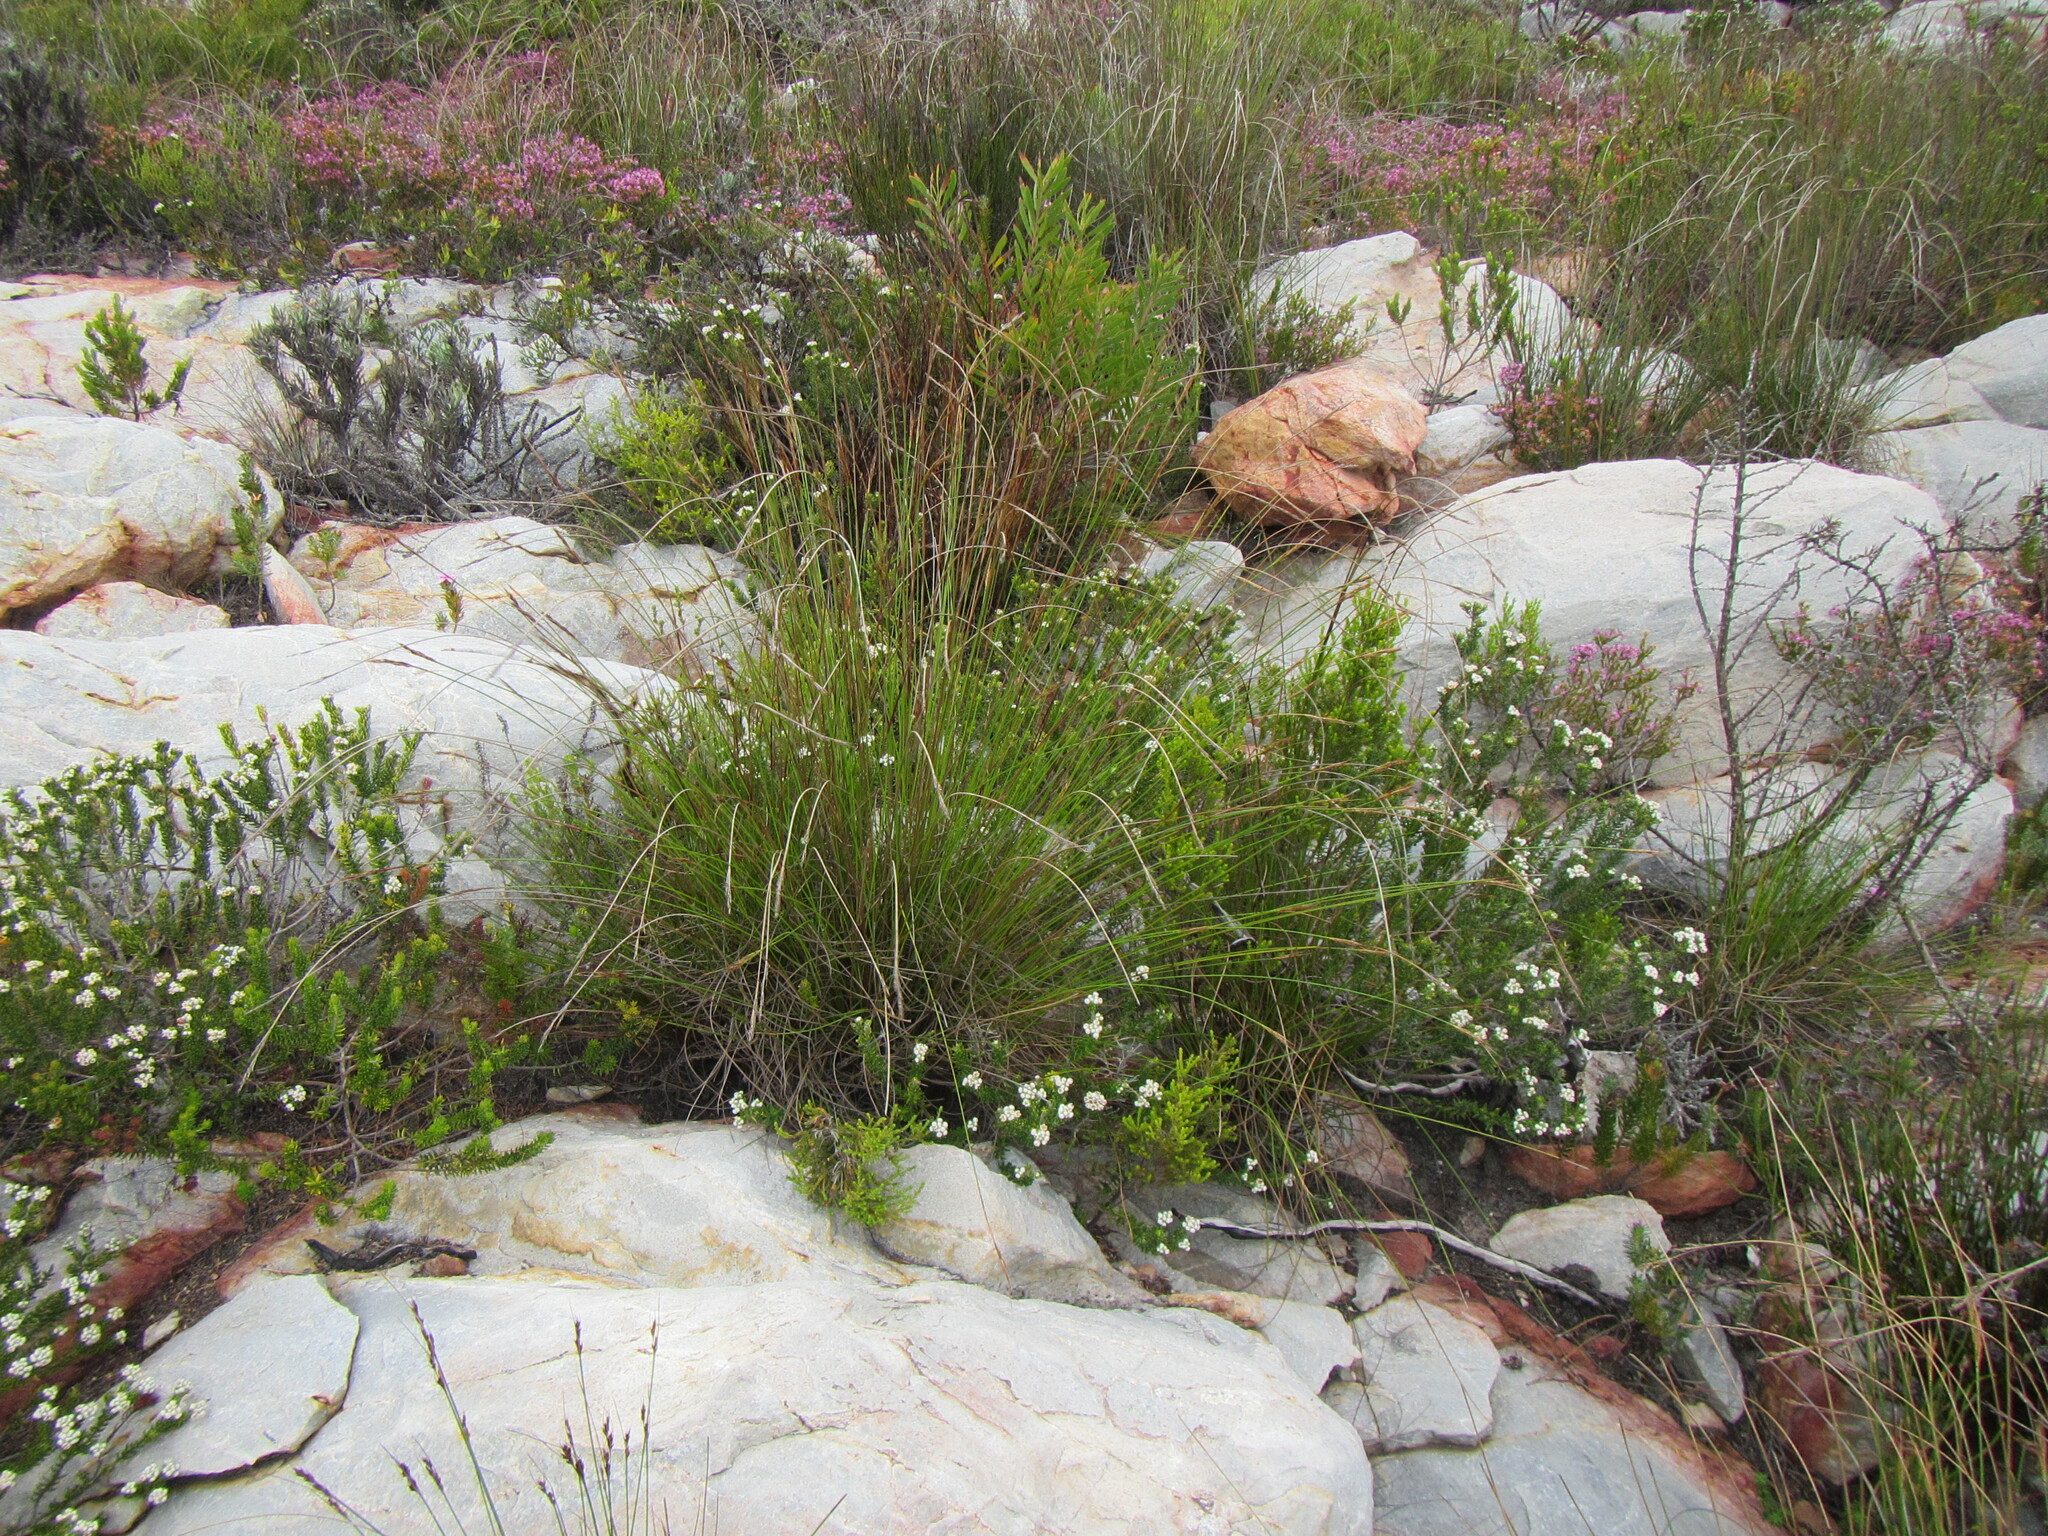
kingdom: Plantae
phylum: Tracheophyta
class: Liliopsida
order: Poales
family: Cyperaceae
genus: Schoenus
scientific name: Schoenus crassus
